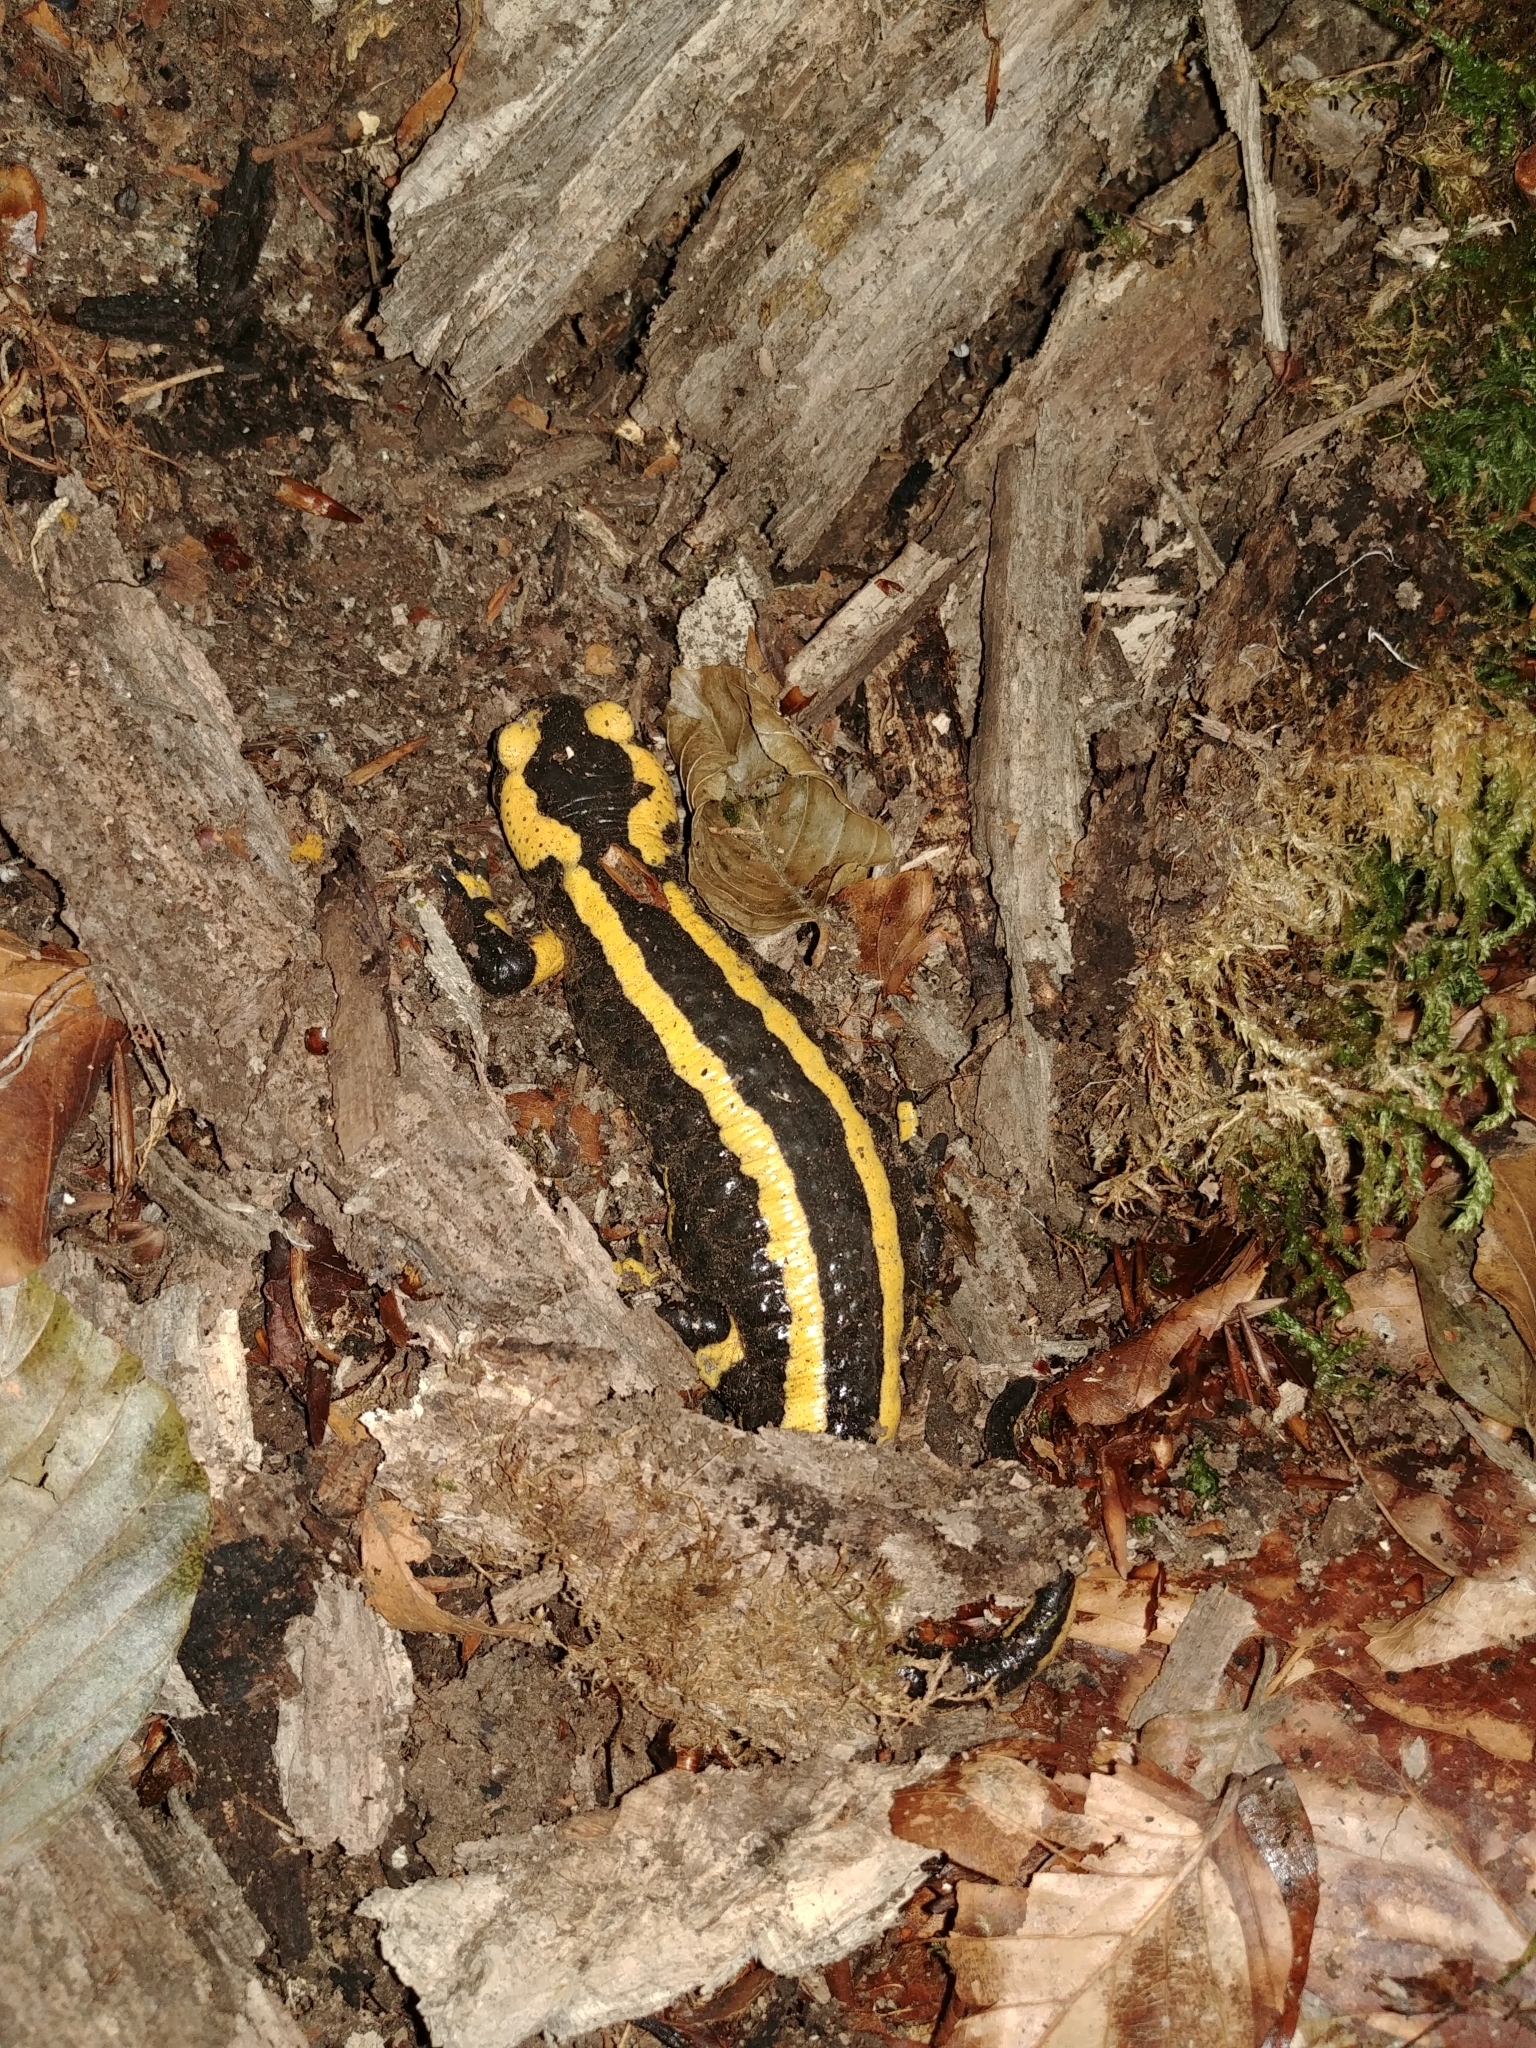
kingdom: Animalia
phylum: Chordata
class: Amphibia
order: Caudata
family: Salamandridae
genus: Salamandra
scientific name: Salamandra salamandra
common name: Fire salamander
